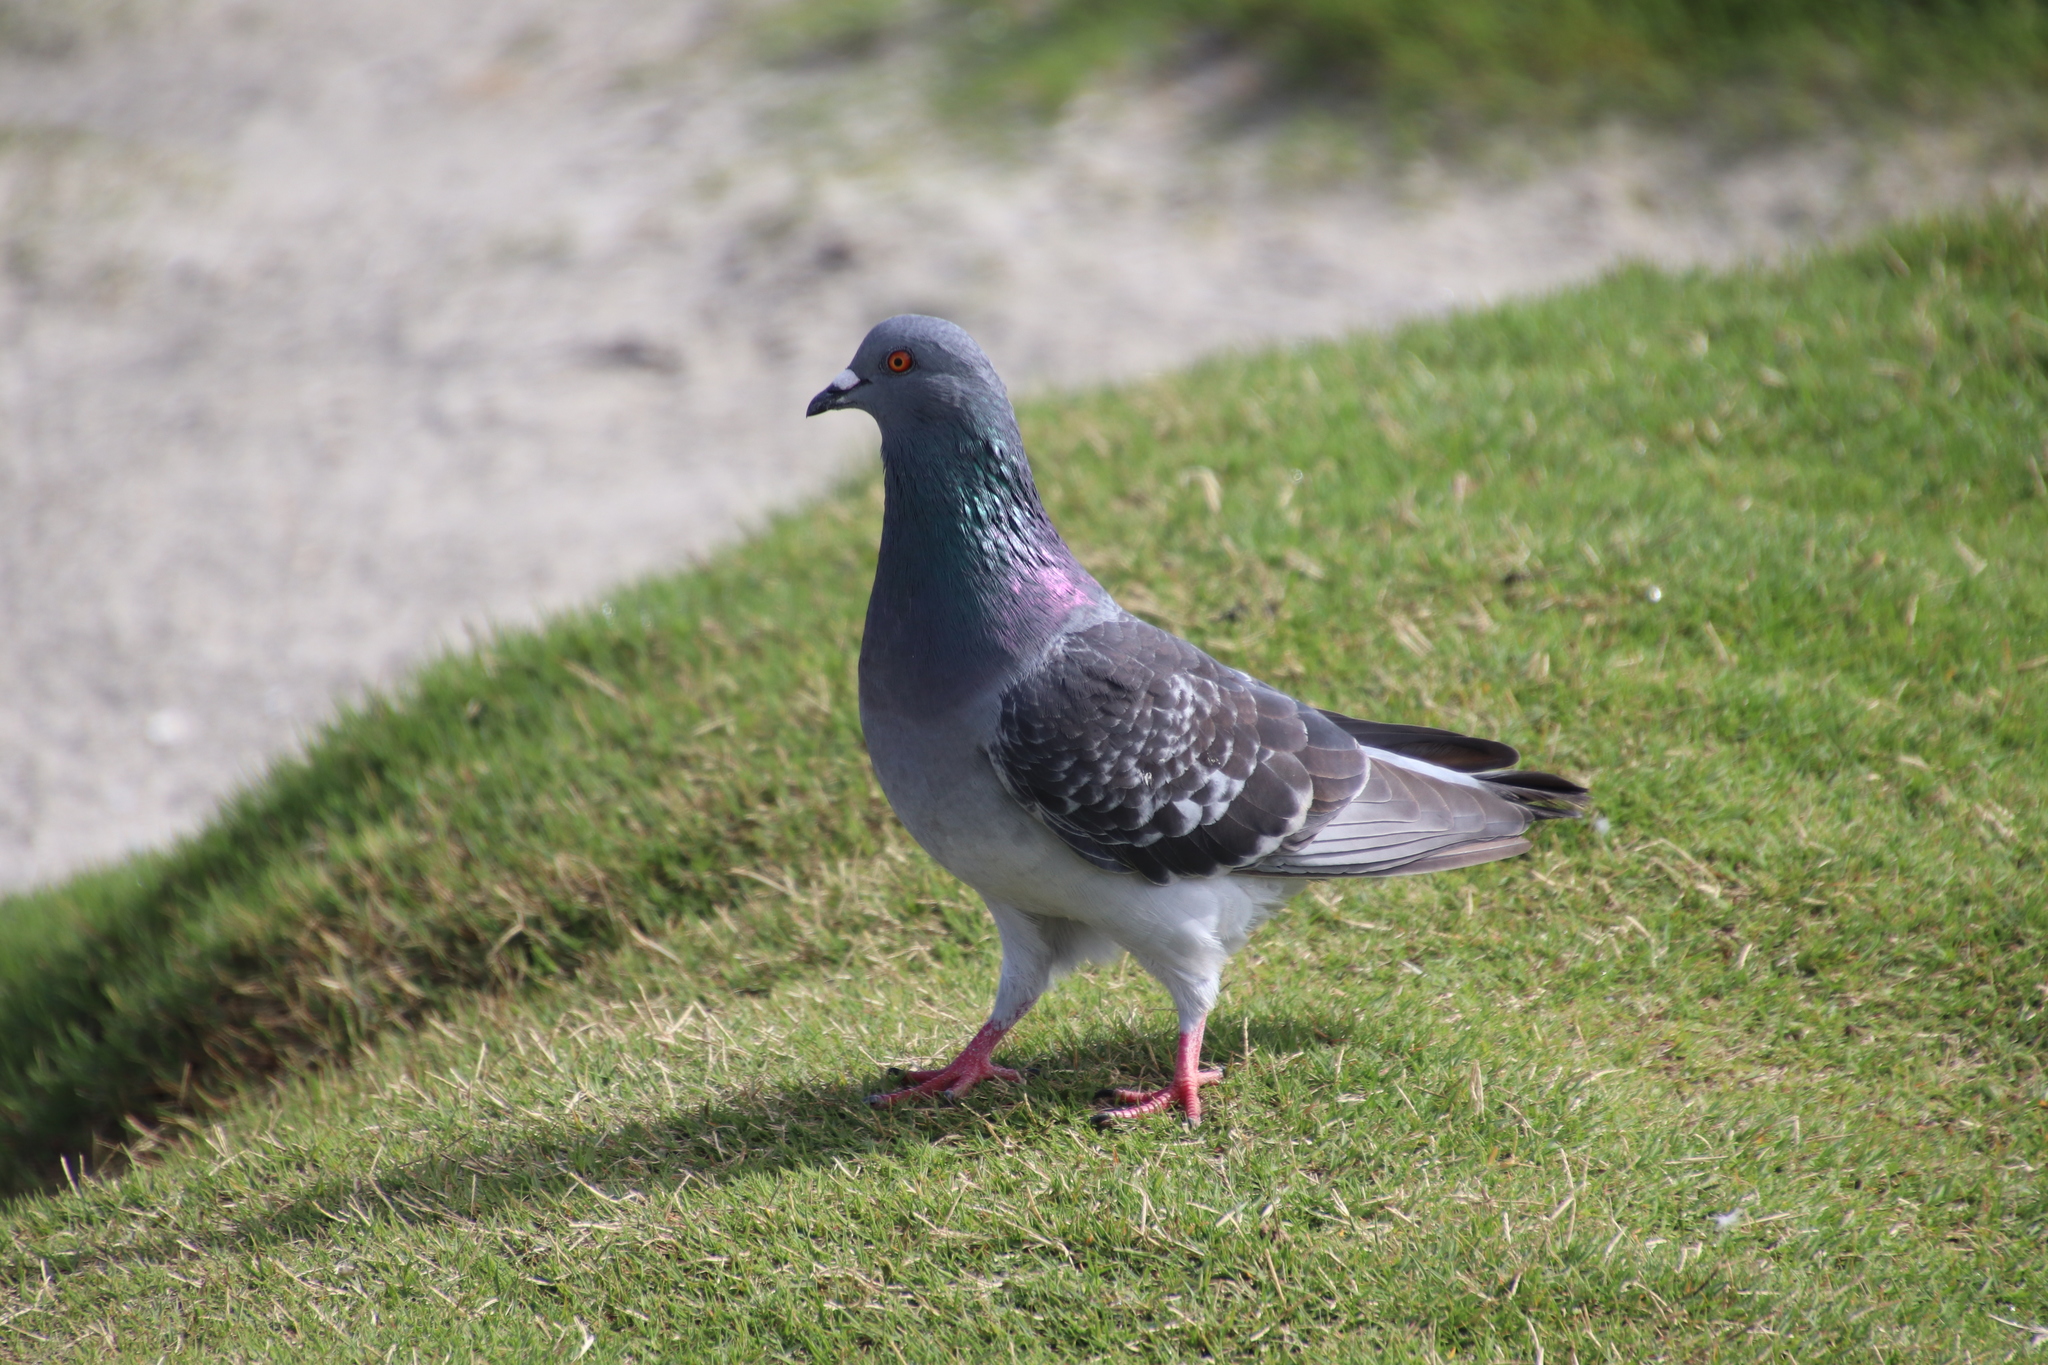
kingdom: Animalia
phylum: Chordata
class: Aves
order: Columbiformes
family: Columbidae
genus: Columba
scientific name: Columba livia
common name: Rock pigeon
